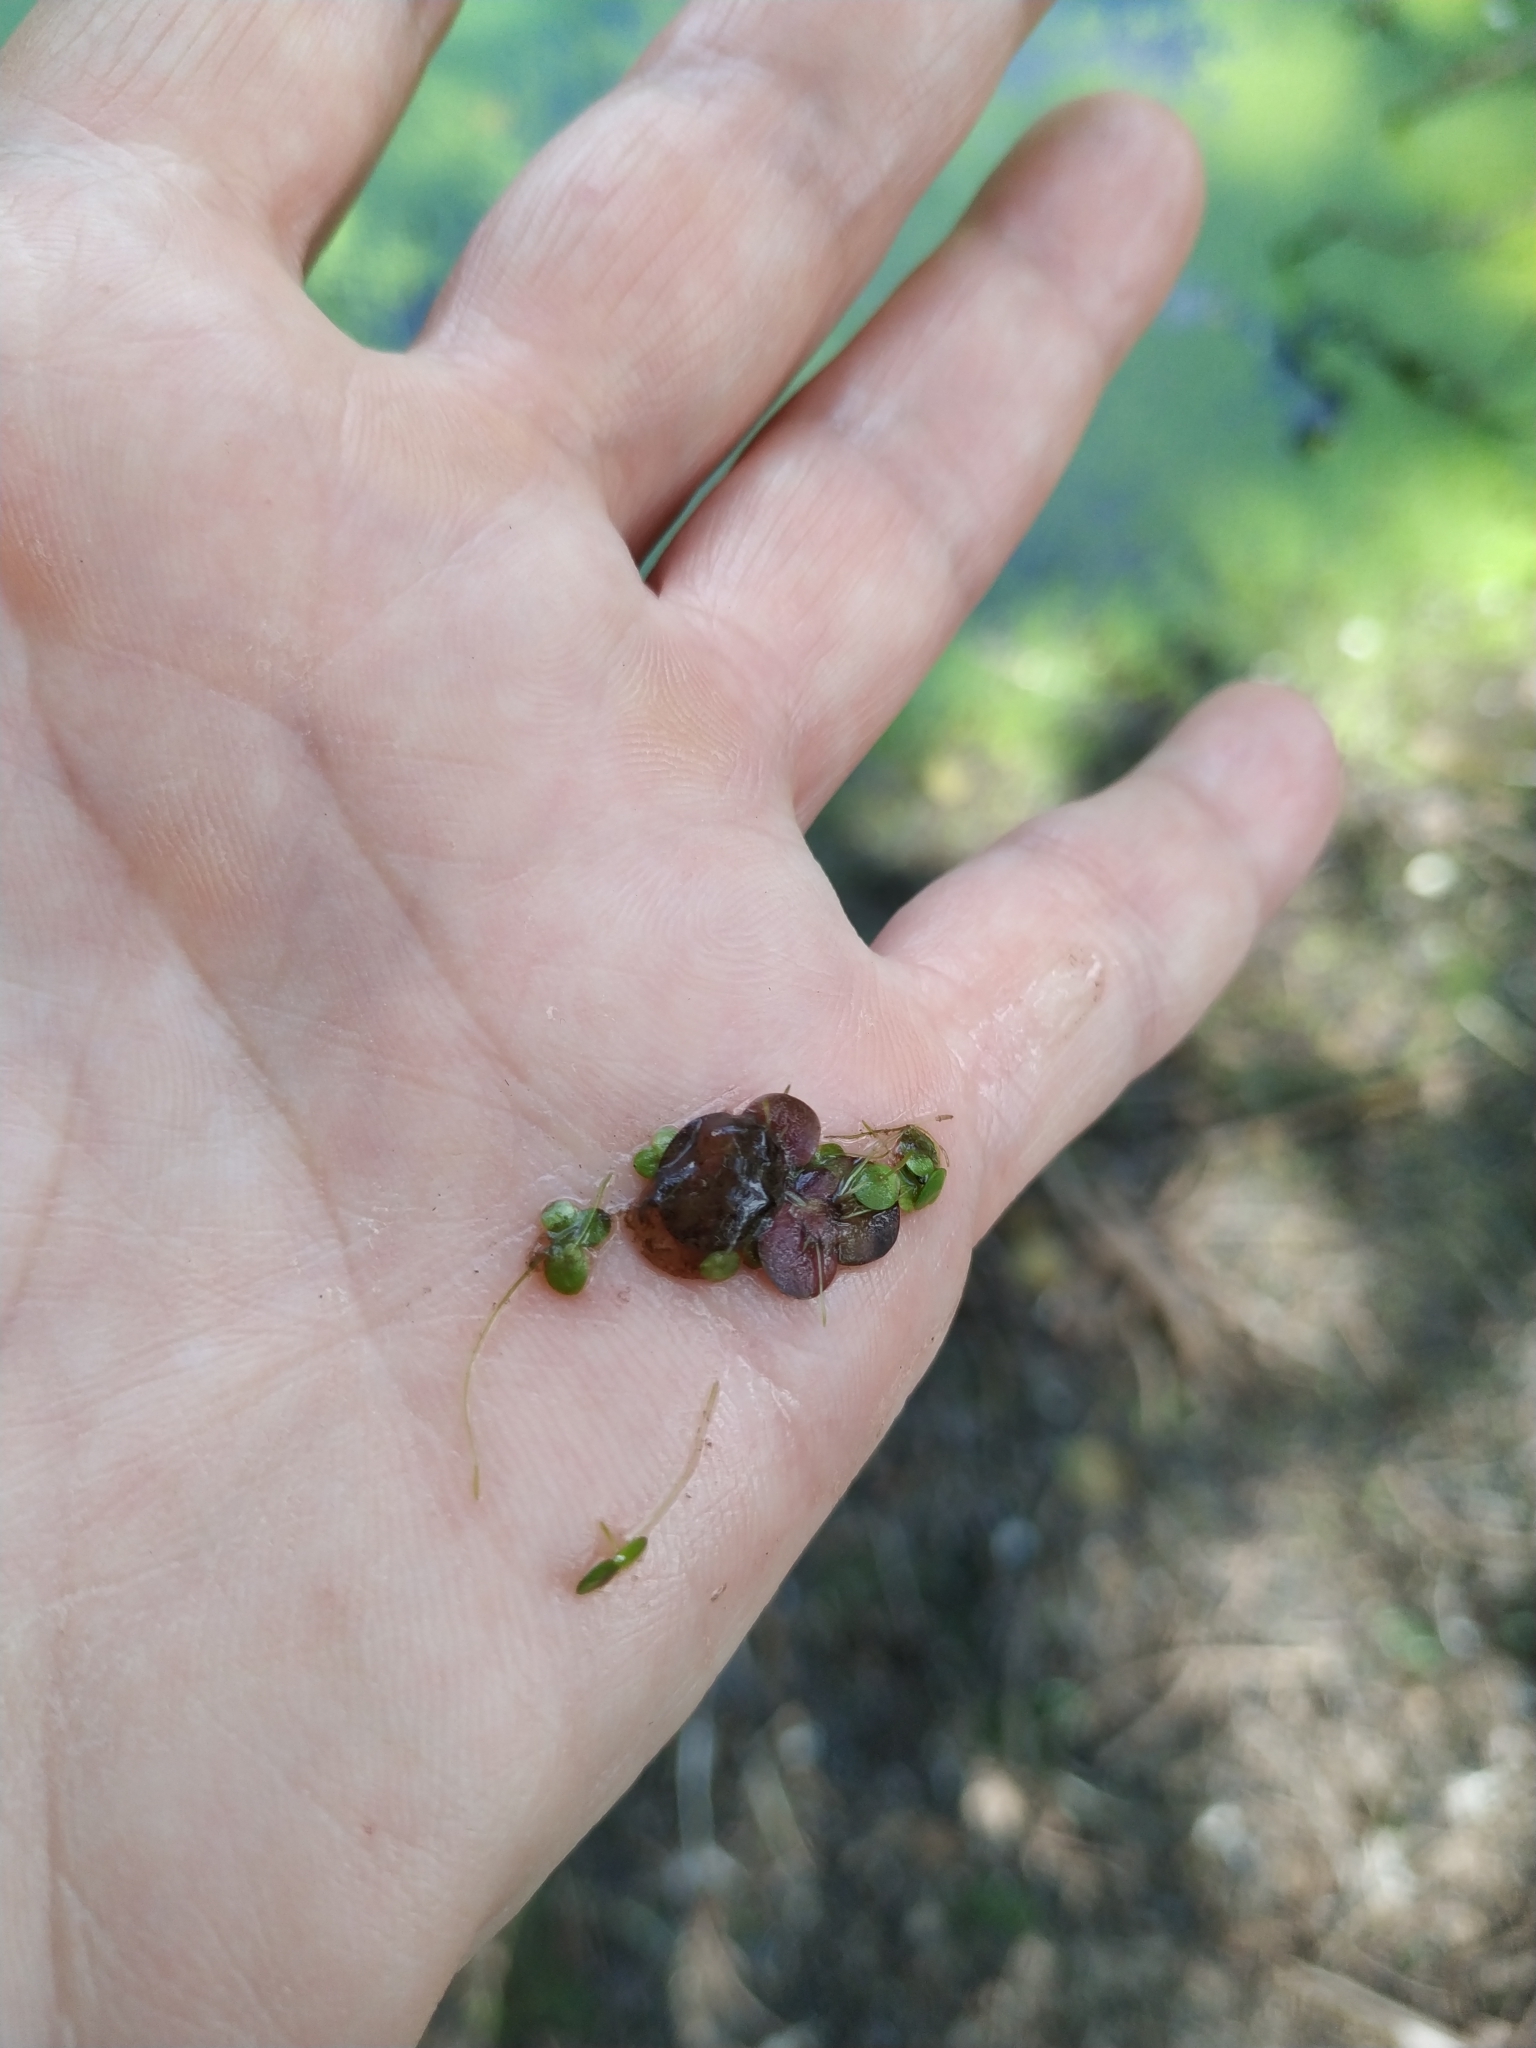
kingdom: Plantae
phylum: Tracheophyta
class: Liliopsida
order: Alismatales
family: Araceae
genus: Spirodela
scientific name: Spirodela polyrhiza
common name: Great duckweed
